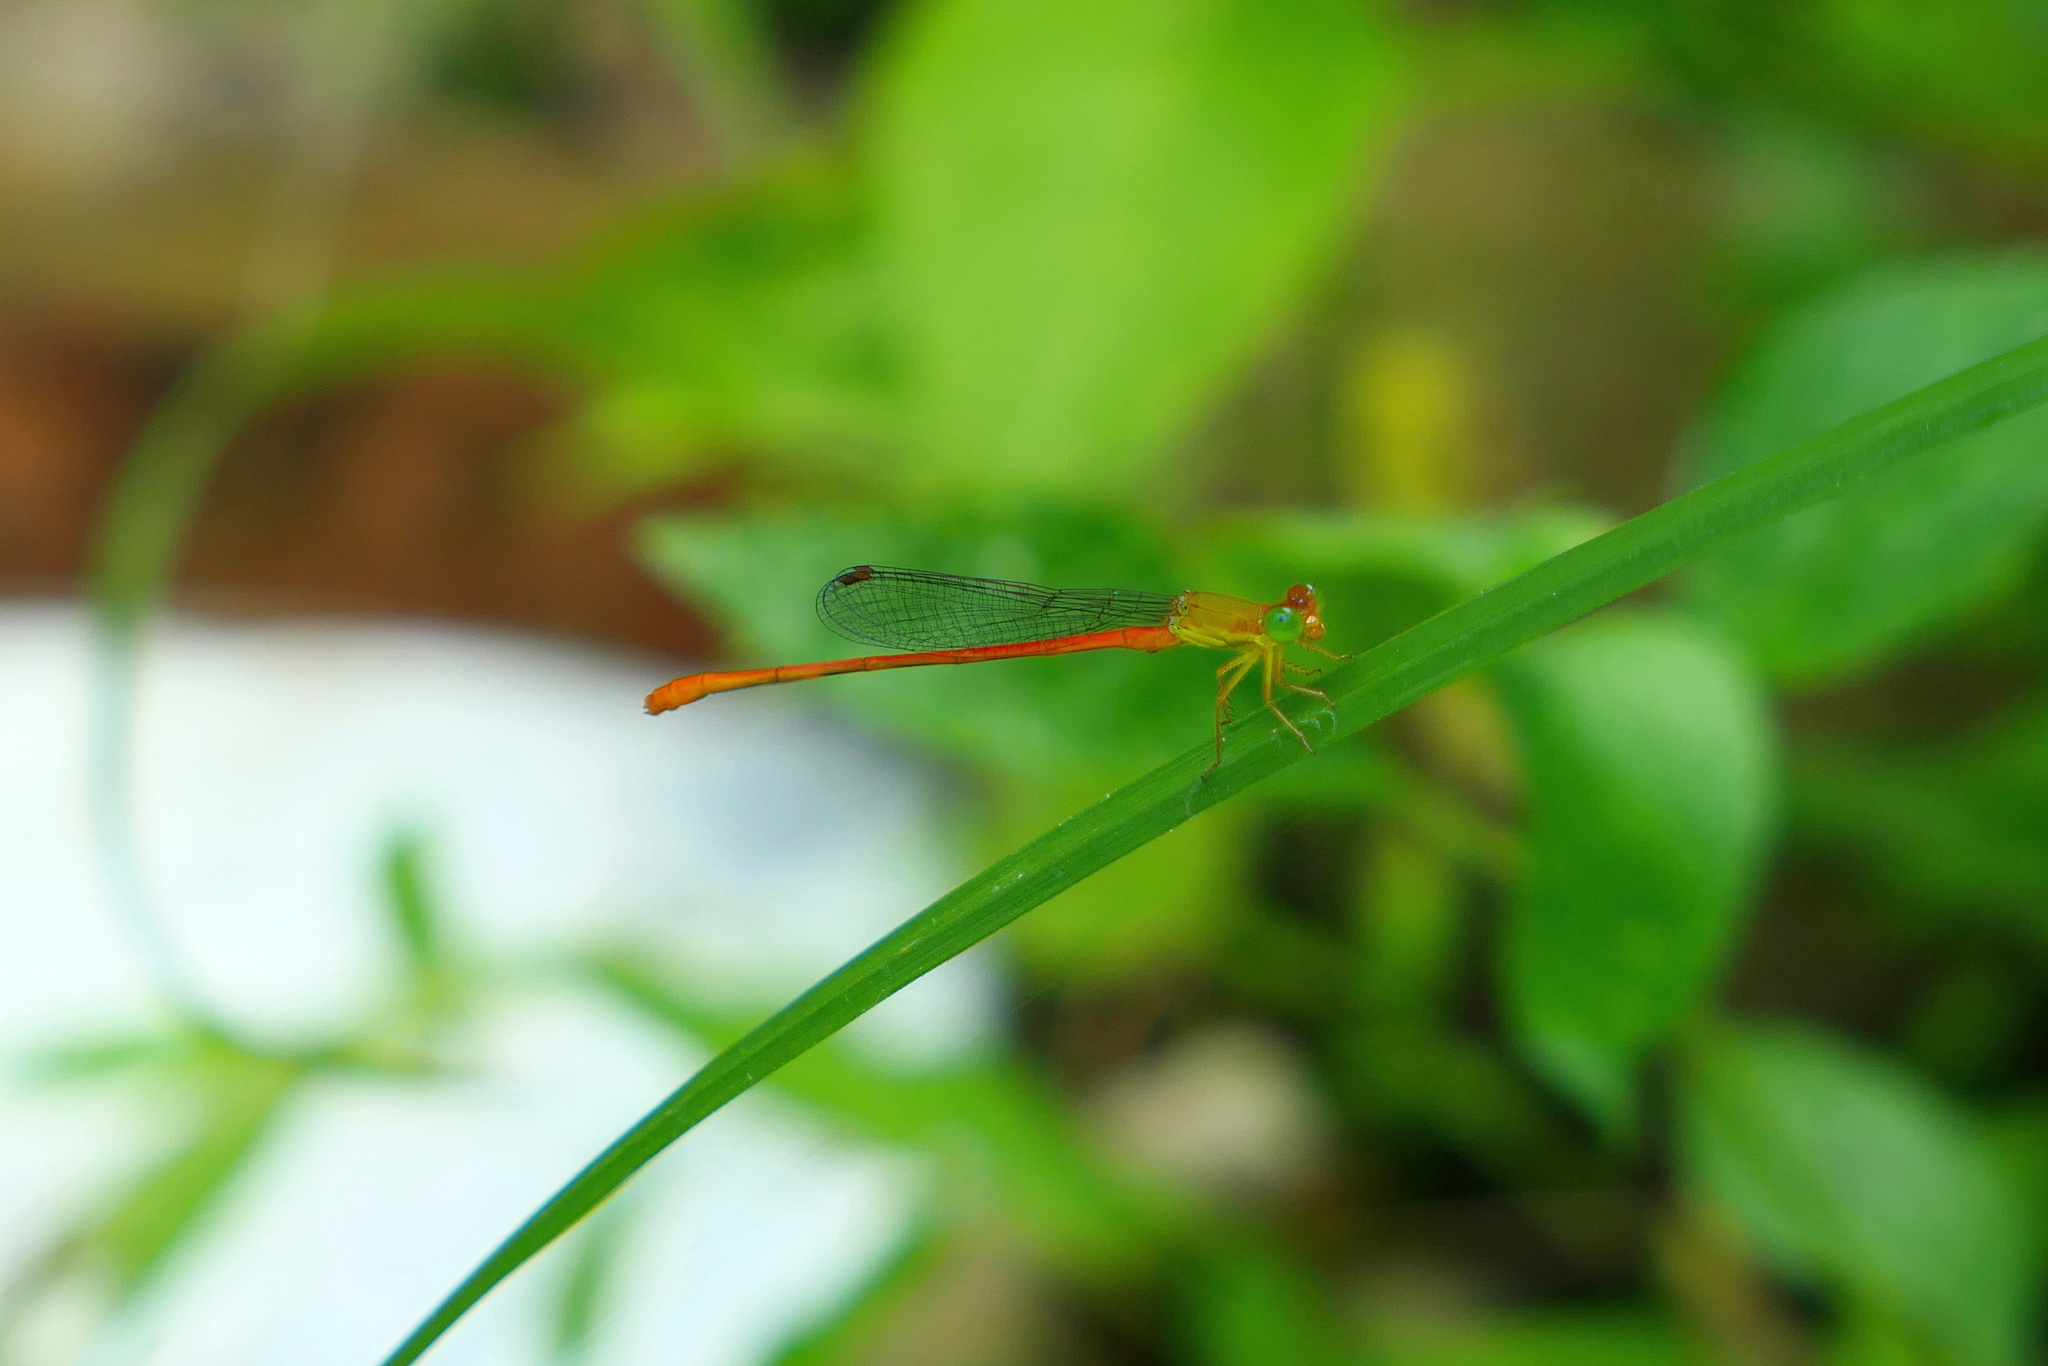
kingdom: Animalia
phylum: Arthropoda
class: Insecta
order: Odonata
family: Coenagrionidae
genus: Ceriagrion
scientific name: Ceriagrion auranticum
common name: Orange-tailed sprite
